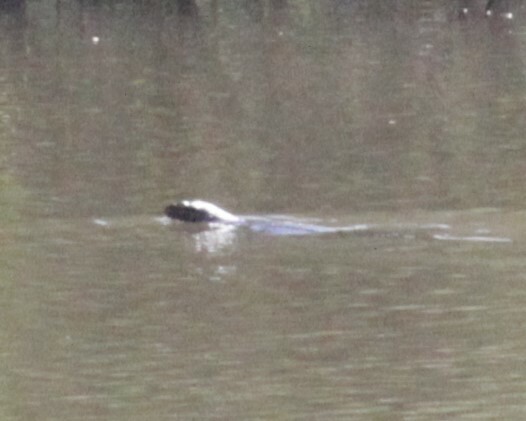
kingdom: Animalia
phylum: Chordata
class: Squamata
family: Varanidae
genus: Varanus
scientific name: Varanus niloticus
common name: Nile monitor
